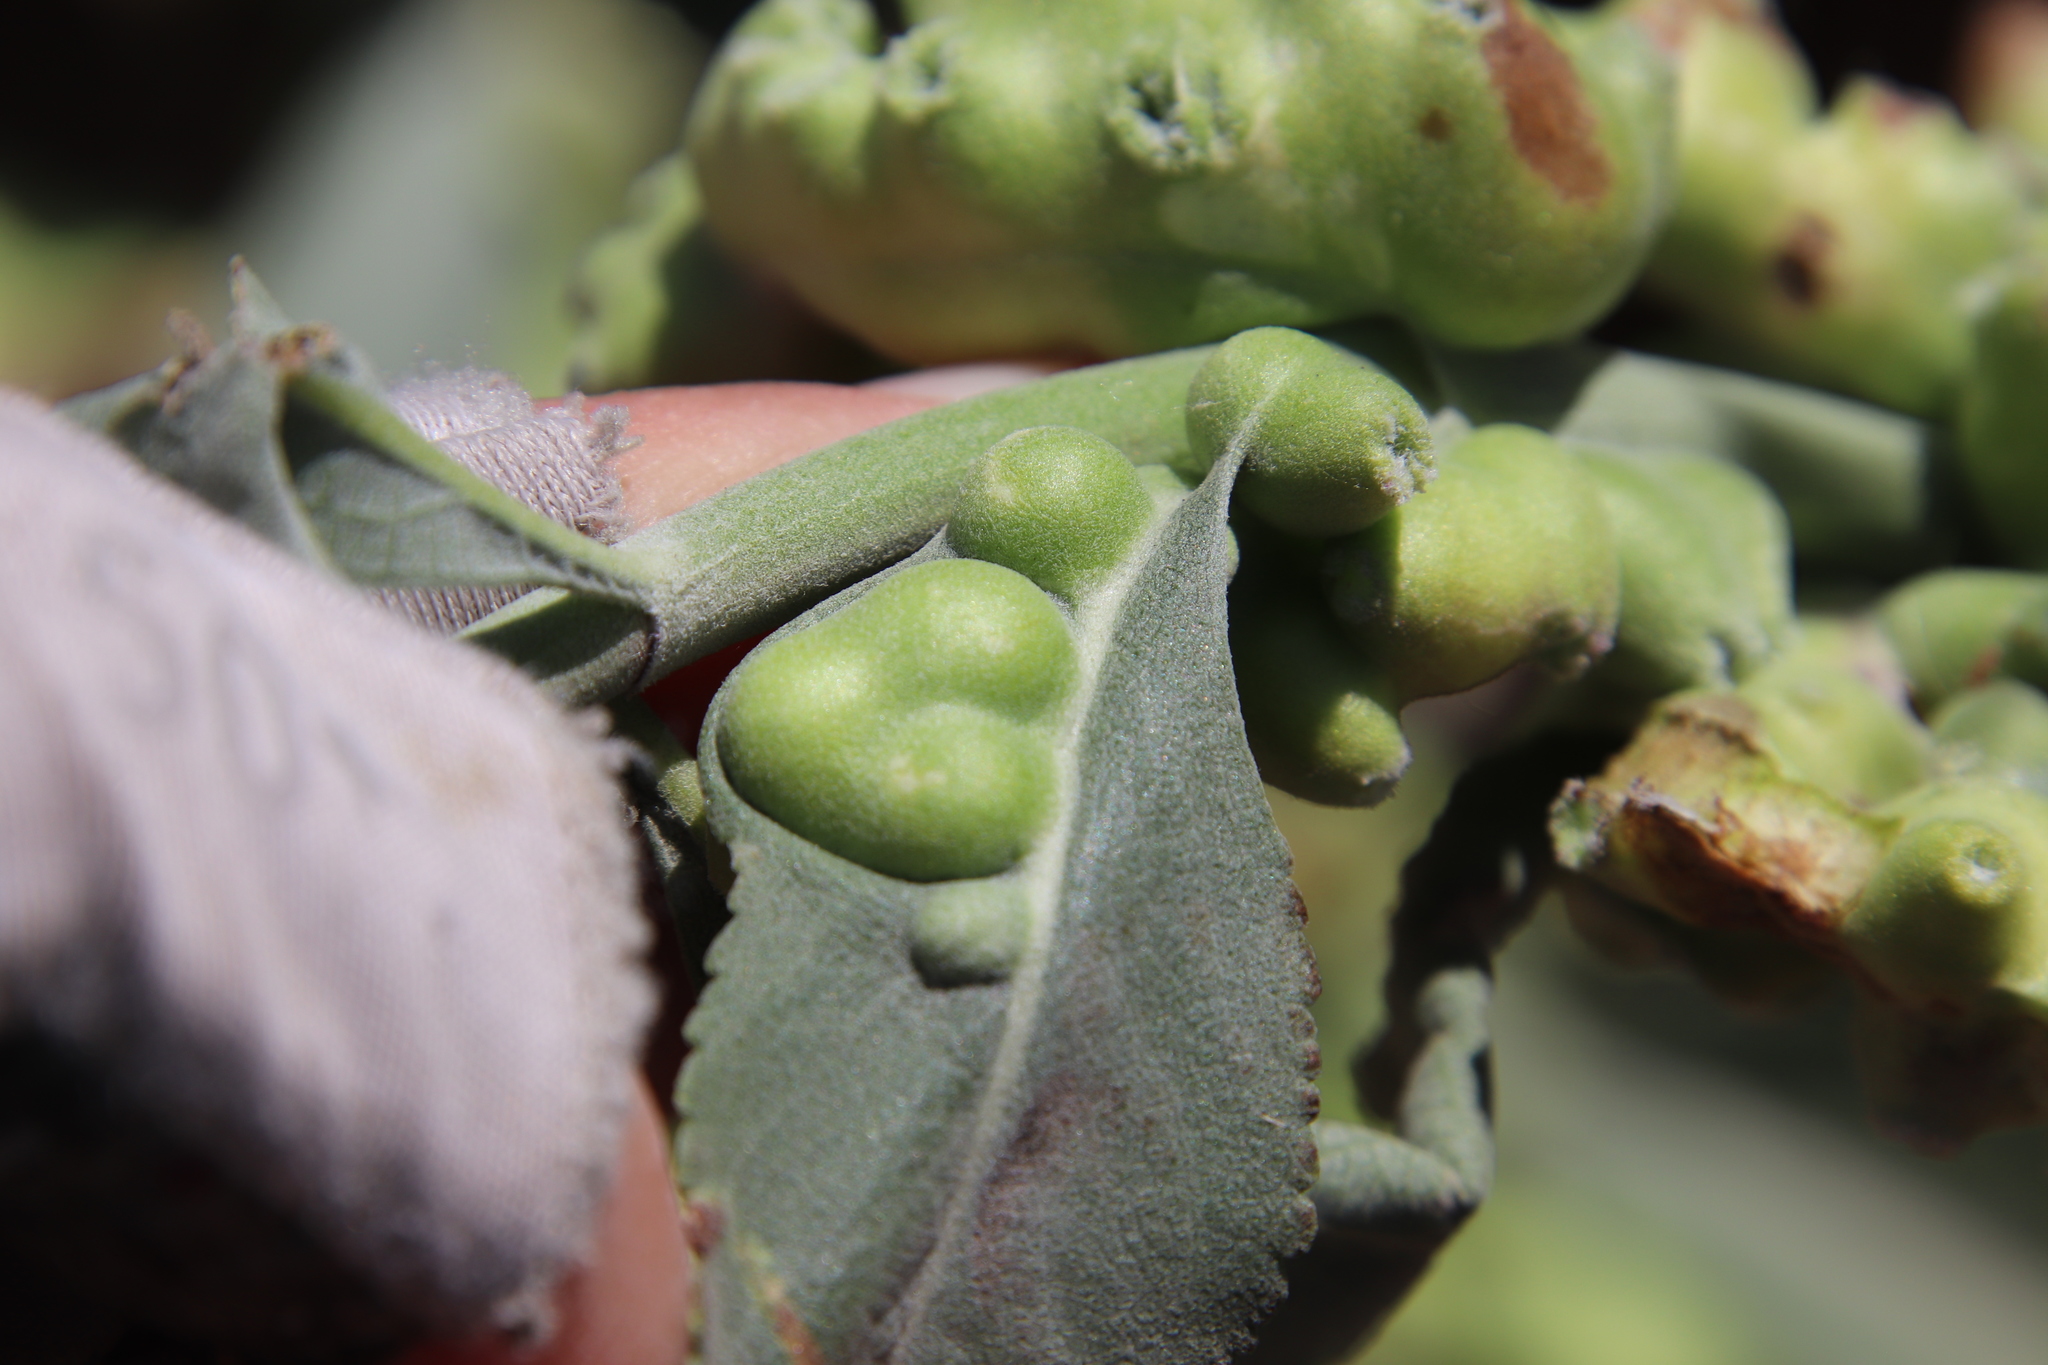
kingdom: Animalia
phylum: Arthropoda
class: Insecta
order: Diptera
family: Cecidomyiidae
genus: Rhopalomyia
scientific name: Rhopalomyia audibertiae
